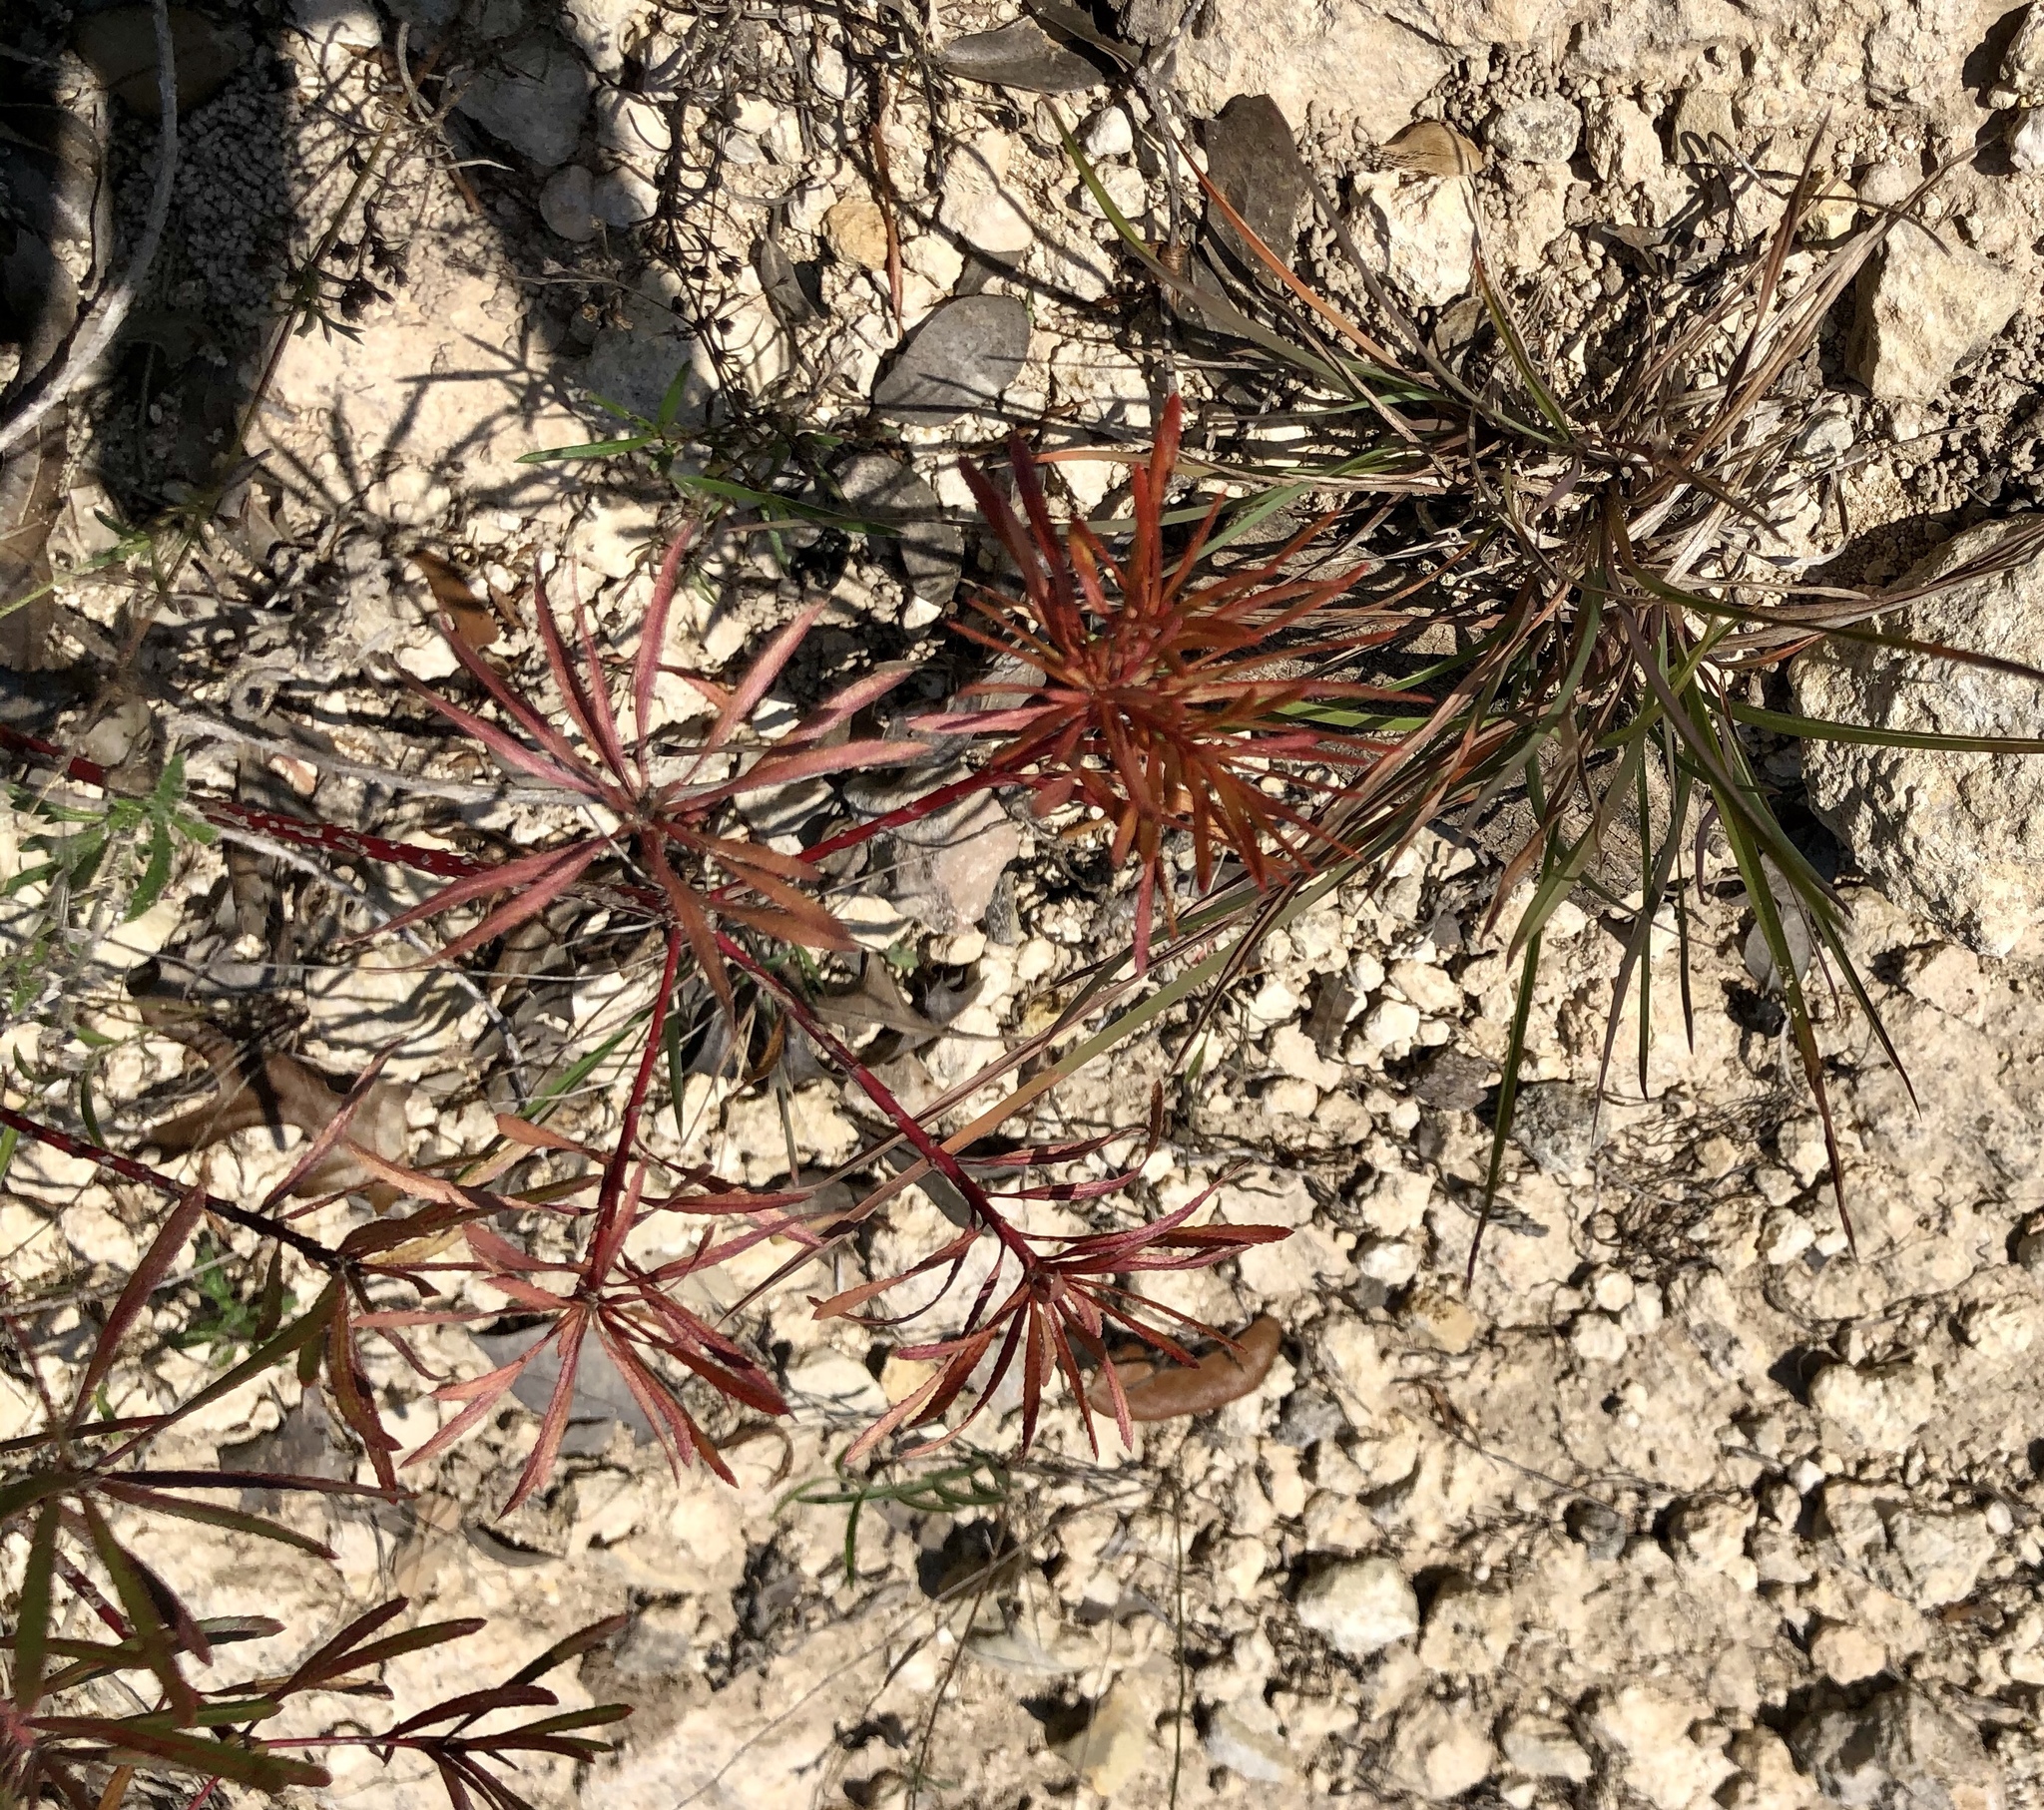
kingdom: Plantae
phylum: Tracheophyta
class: Magnoliopsida
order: Malpighiales
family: Euphorbiaceae
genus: Stillingia
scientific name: Stillingia texana
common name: Texas stillingia
